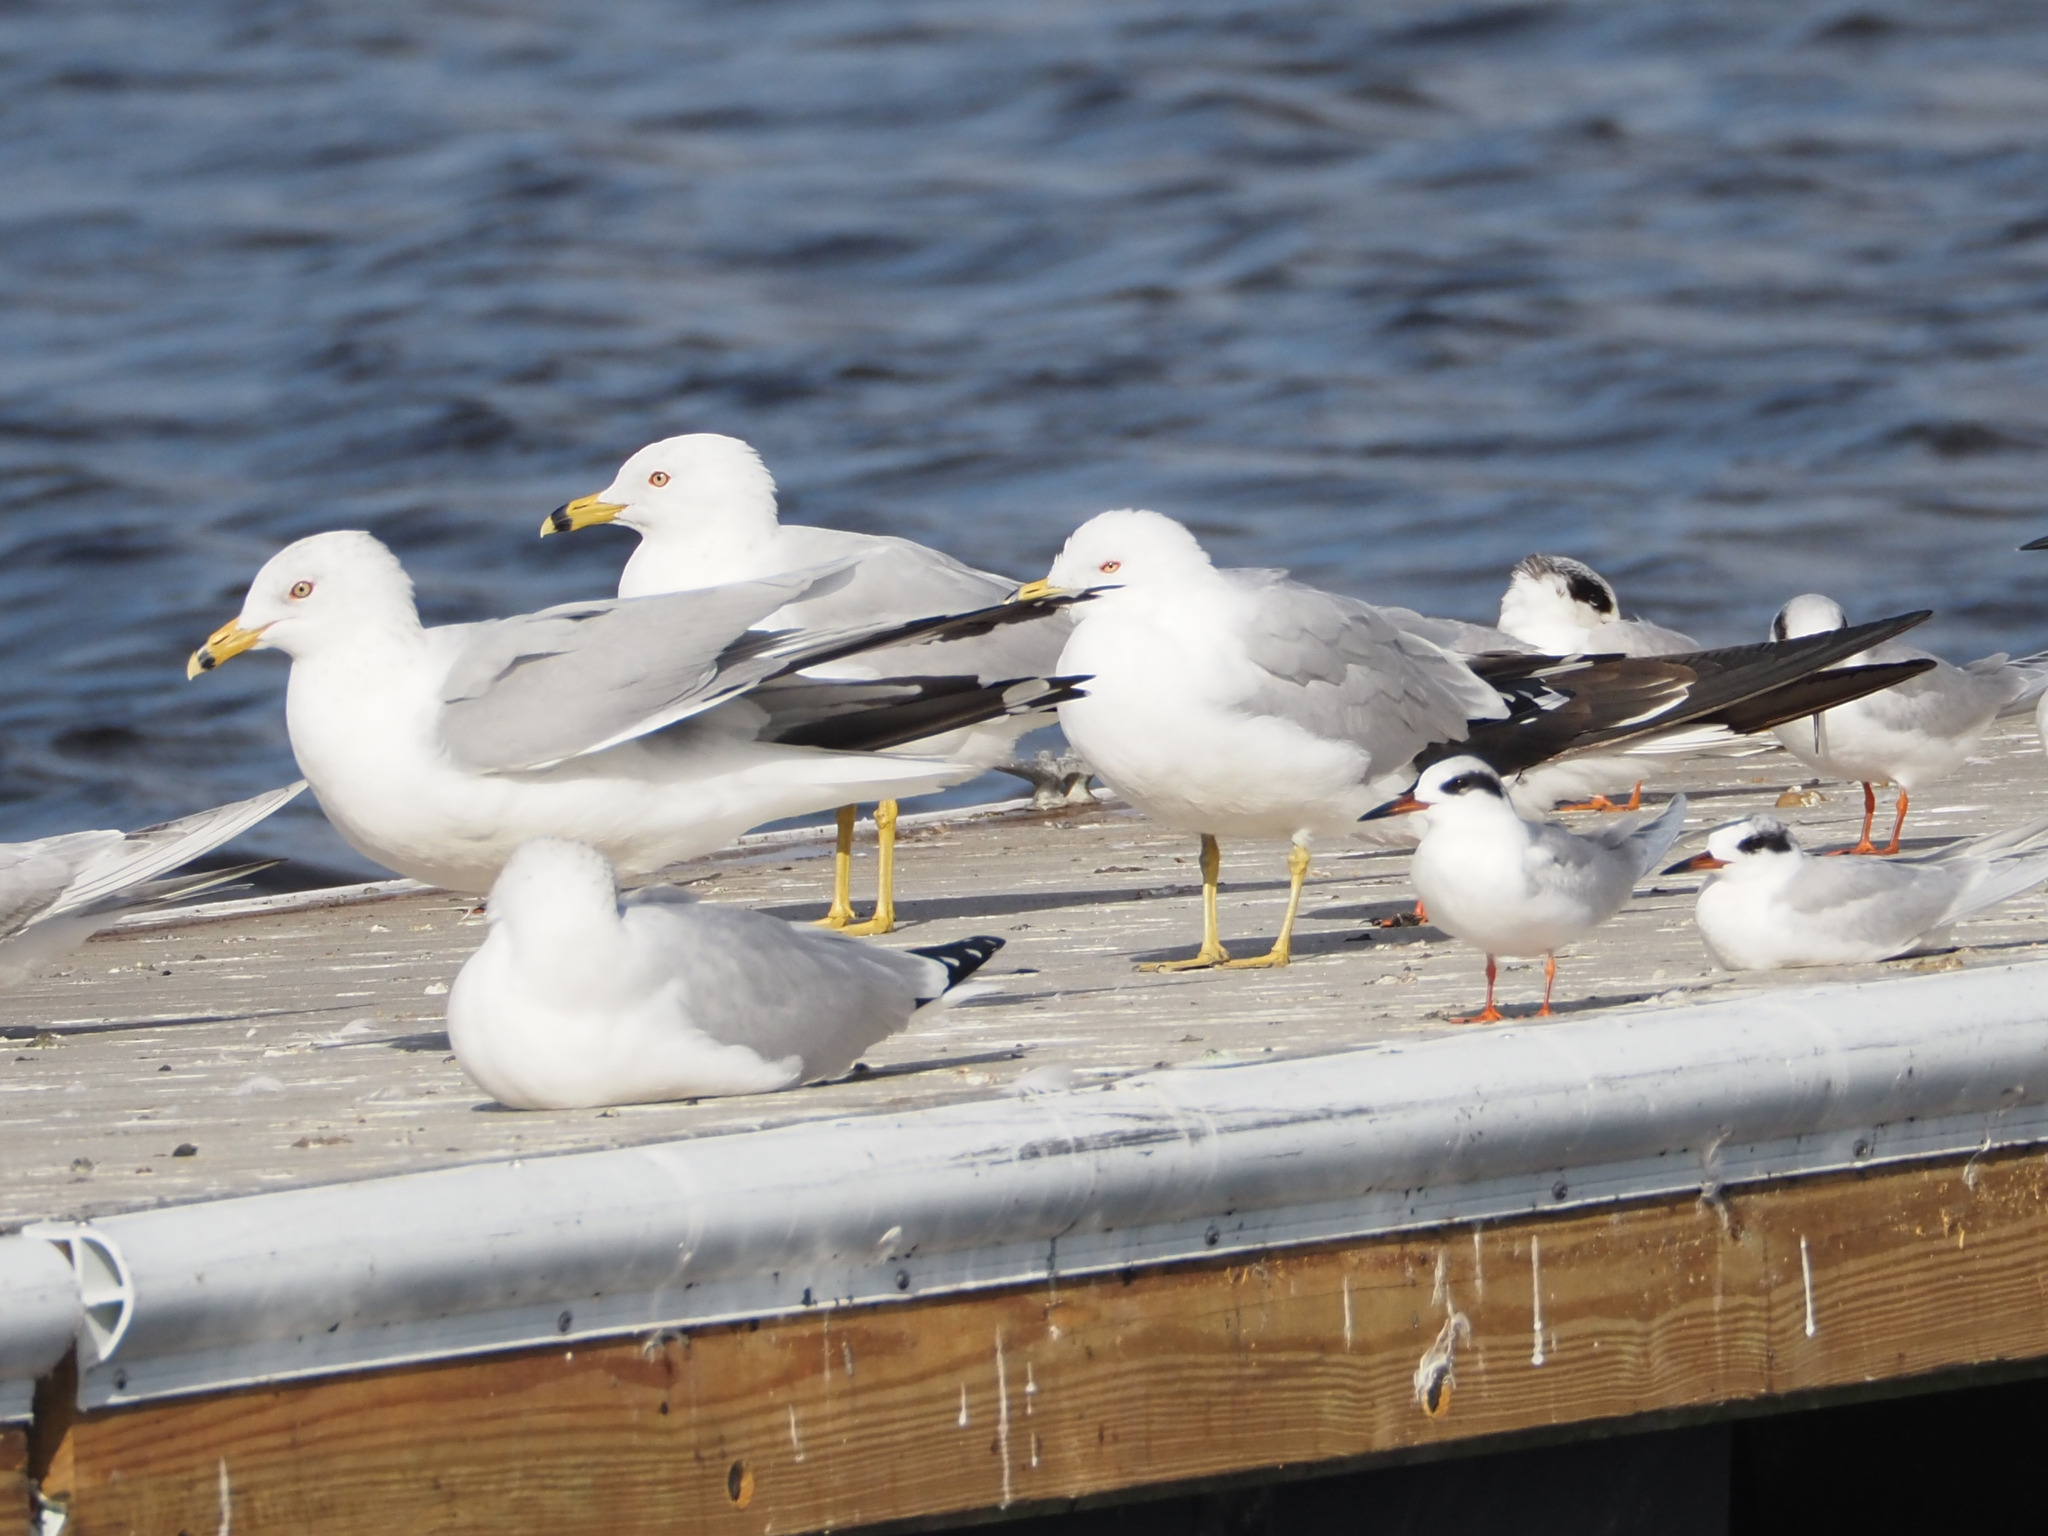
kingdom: Animalia
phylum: Chordata
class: Aves
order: Charadriiformes
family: Laridae
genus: Larus
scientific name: Larus delawarensis
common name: Ring-billed gull
